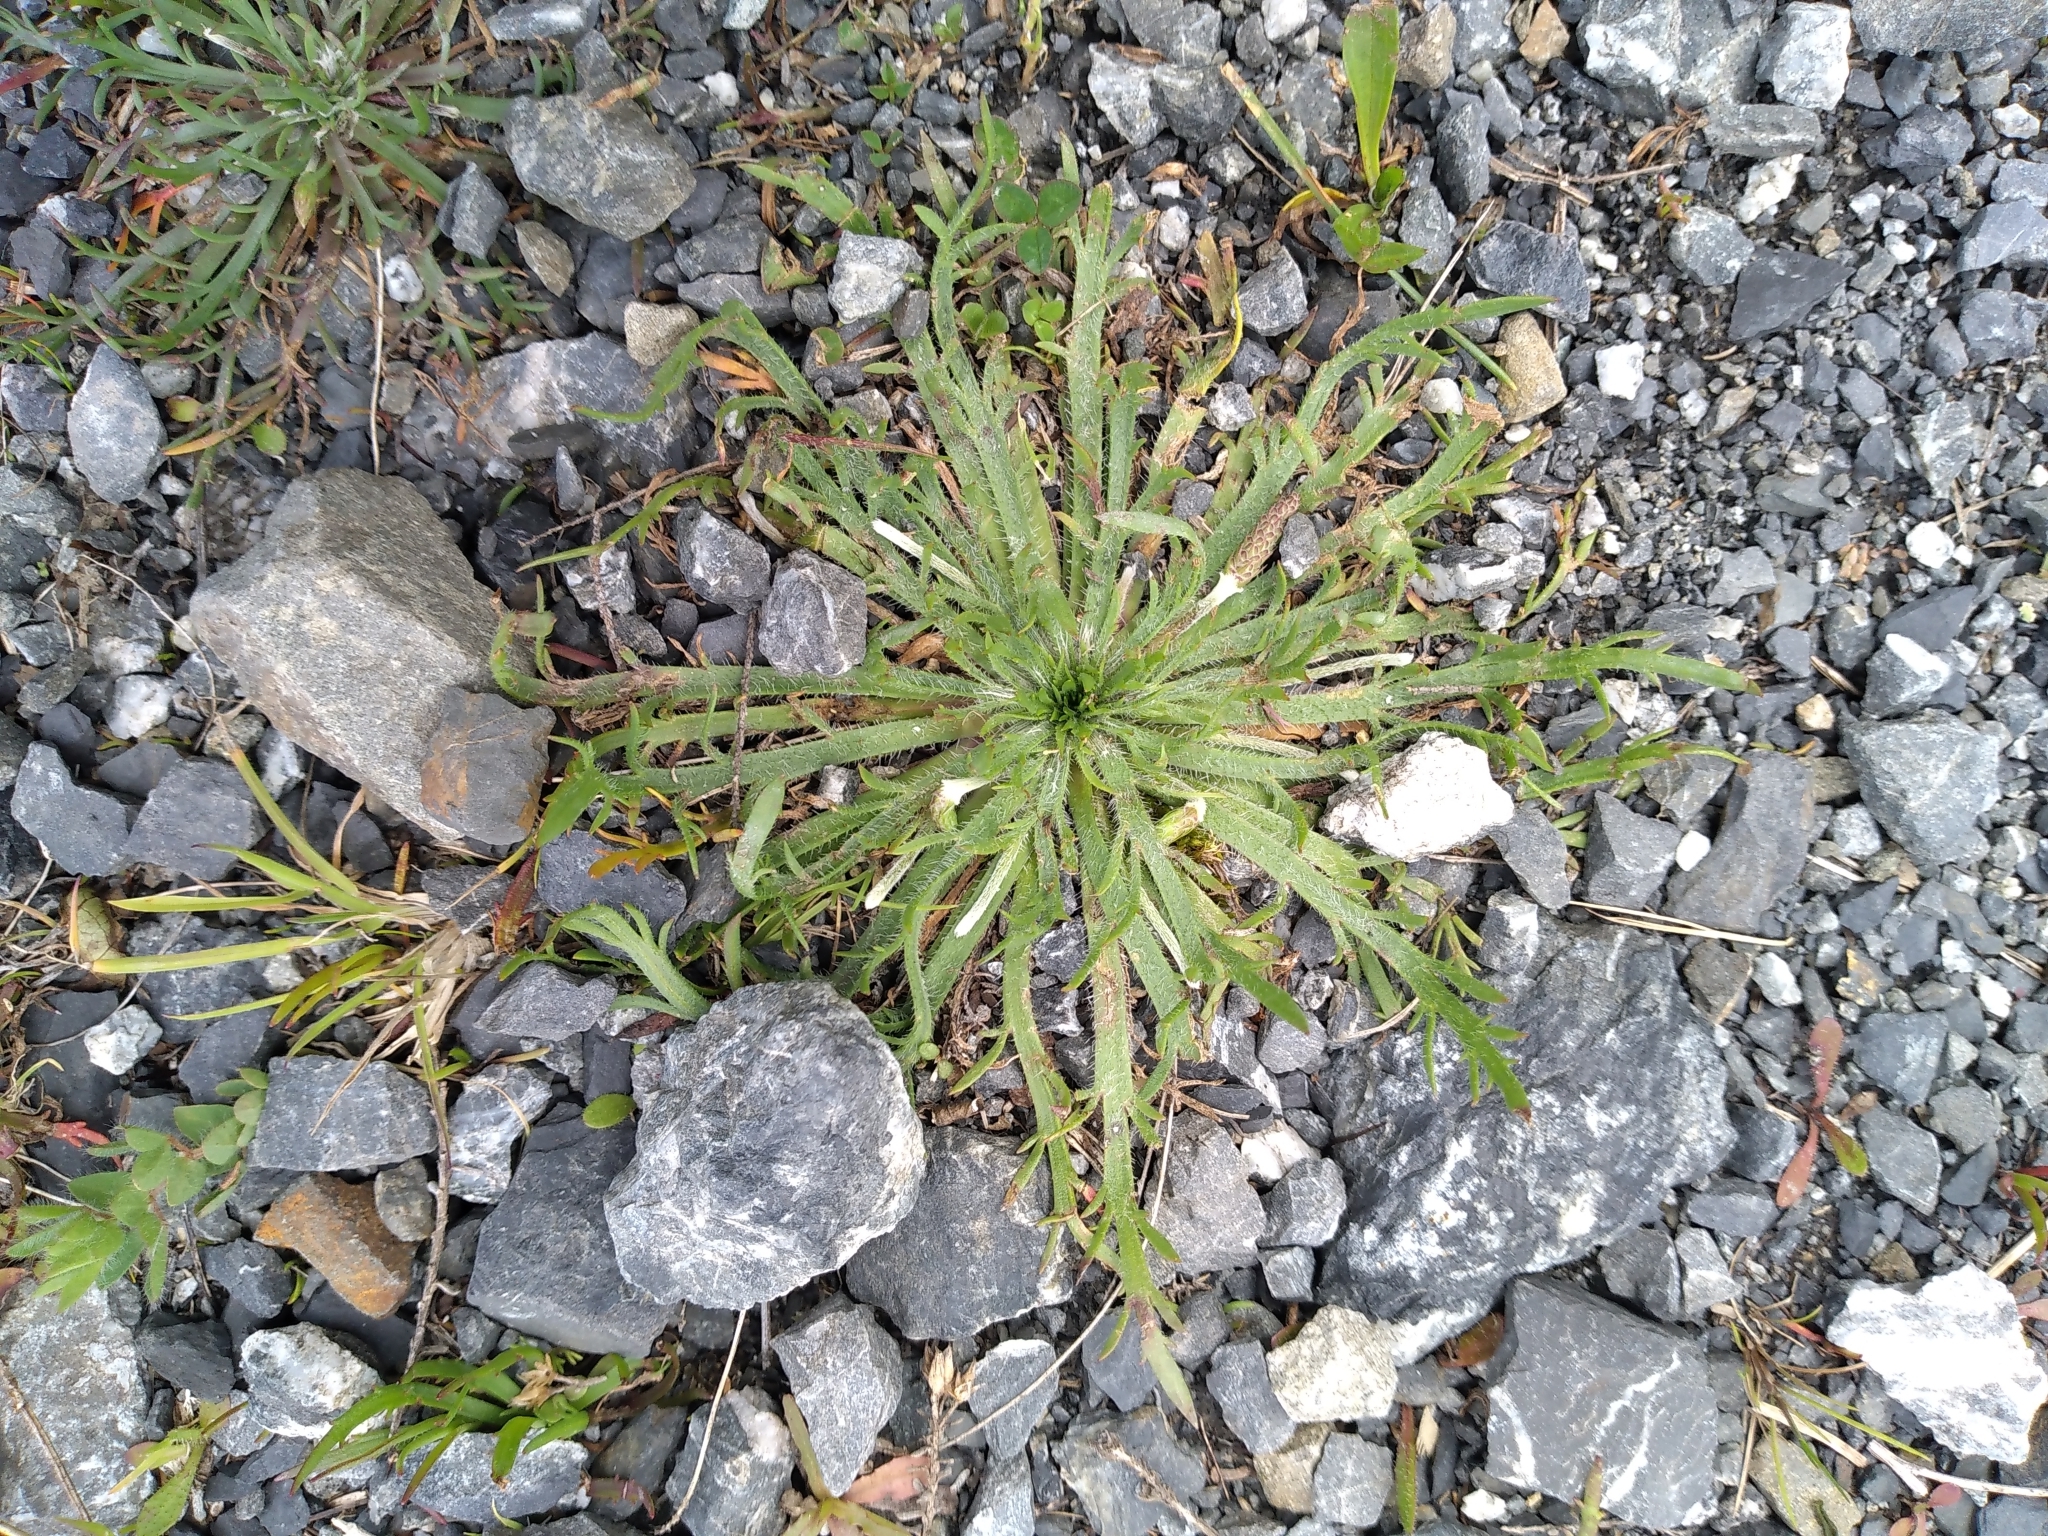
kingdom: Plantae
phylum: Tracheophyta
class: Magnoliopsida
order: Lamiales
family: Plantaginaceae
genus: Plantago
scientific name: Plantago coronopus
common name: Buck's-horn plantain
